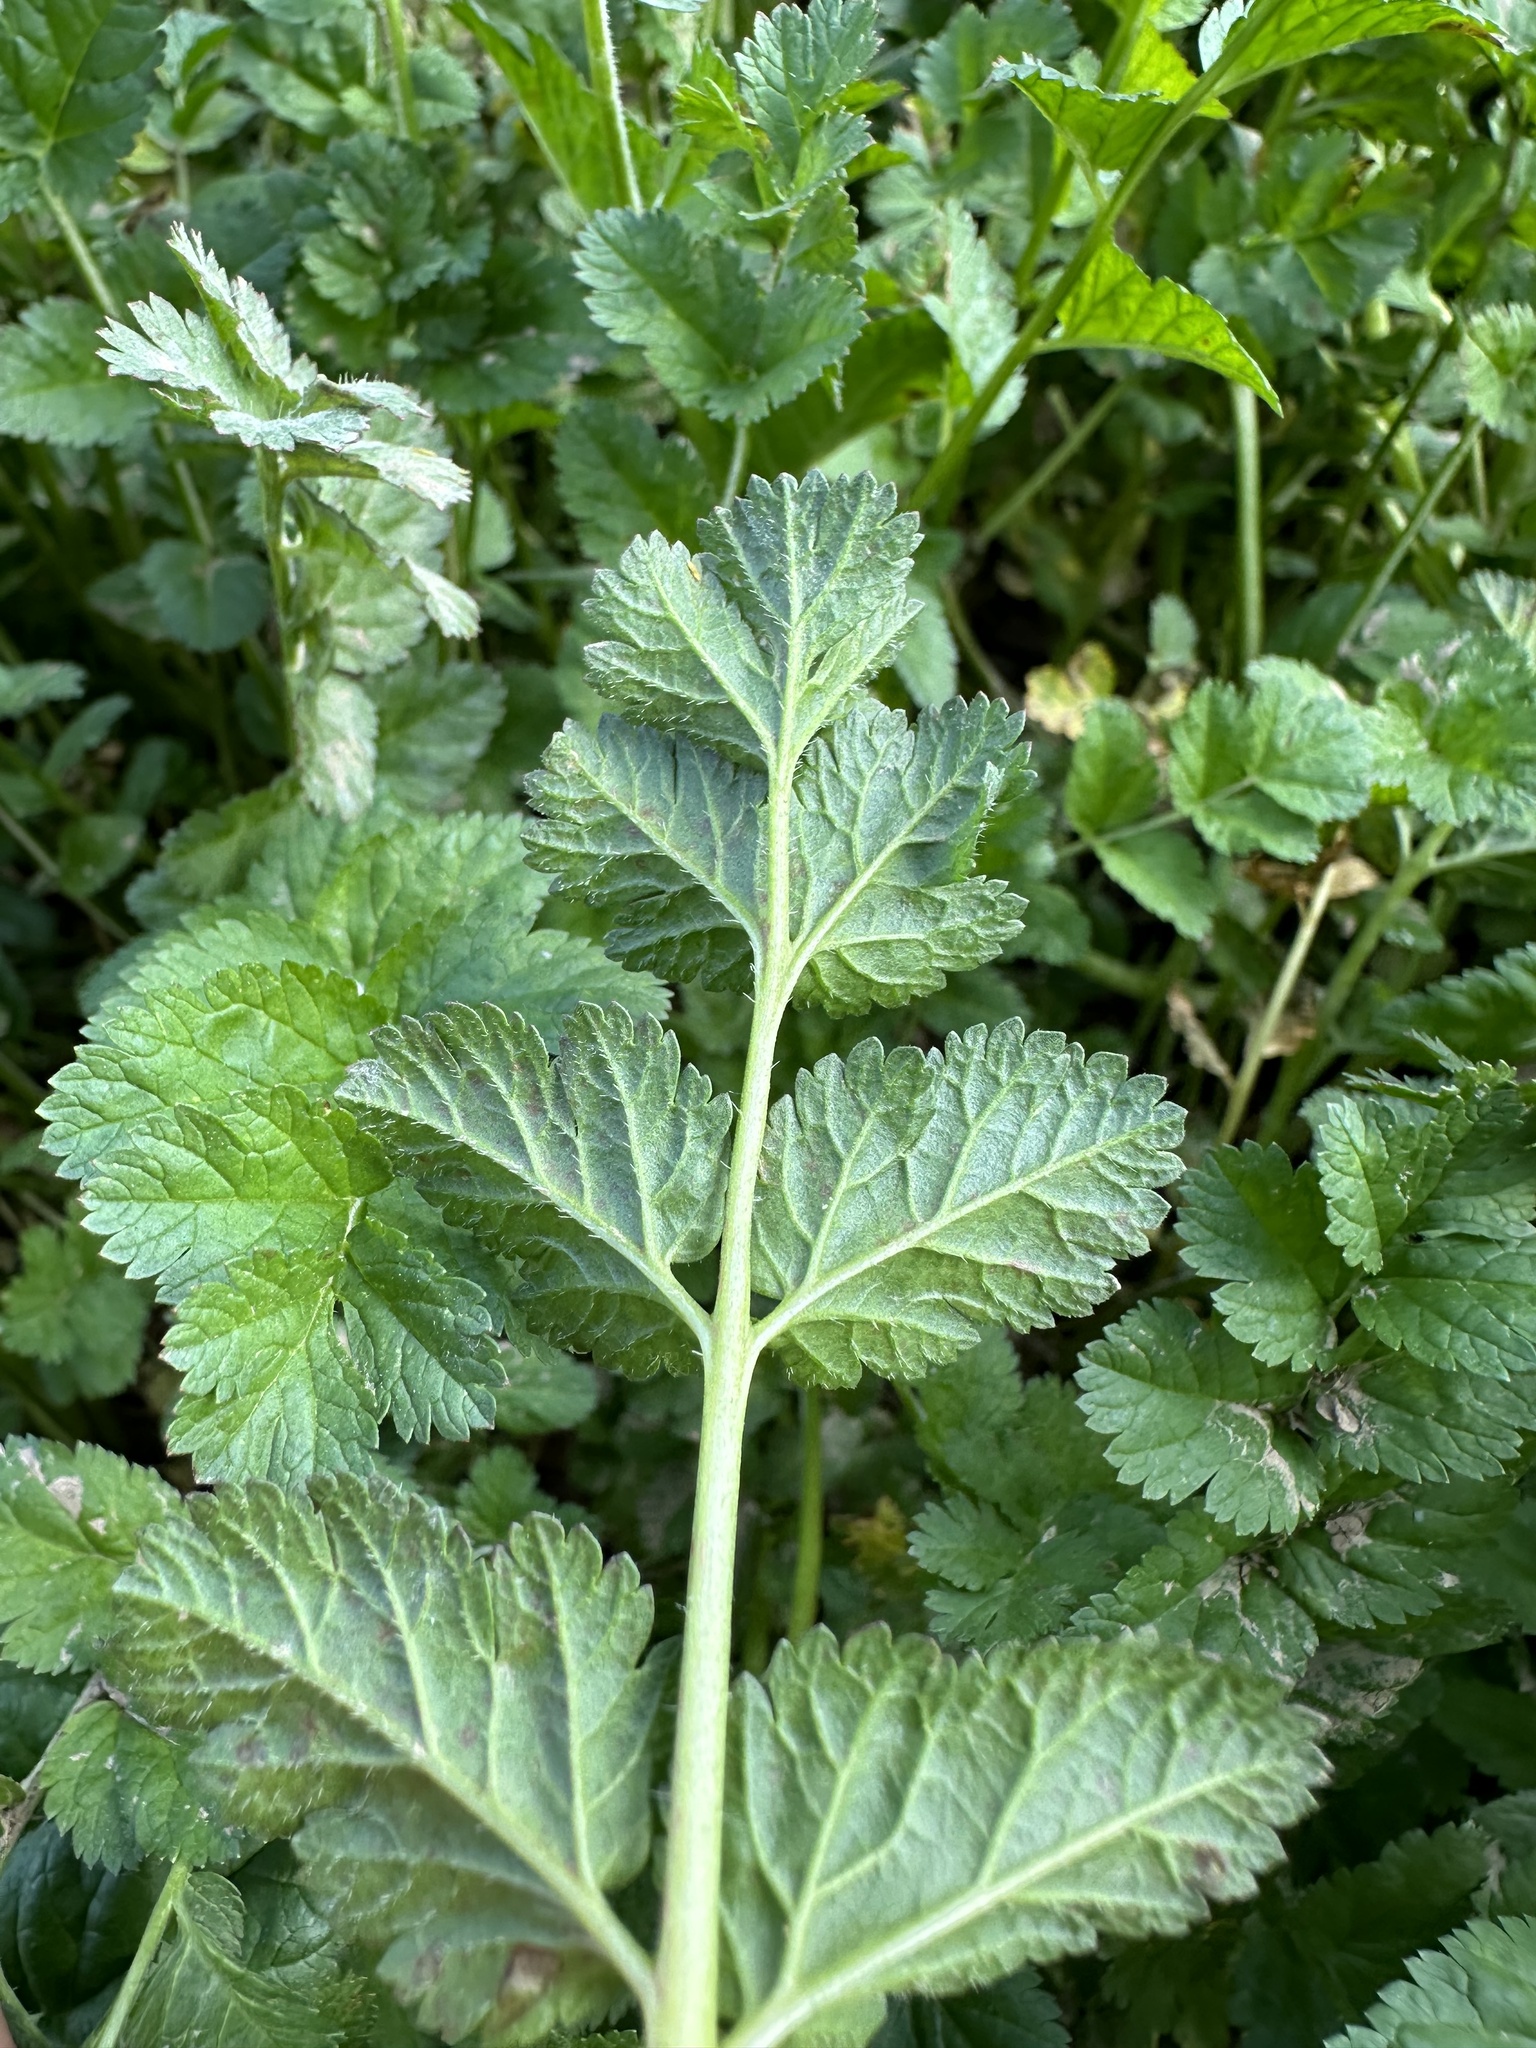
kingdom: Plantae
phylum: Tracheophyta
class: Magnoliopsida
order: Geraniales
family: Geraniaceae
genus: Erodium
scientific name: Erodium moschatum
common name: Musk stork's-bill
